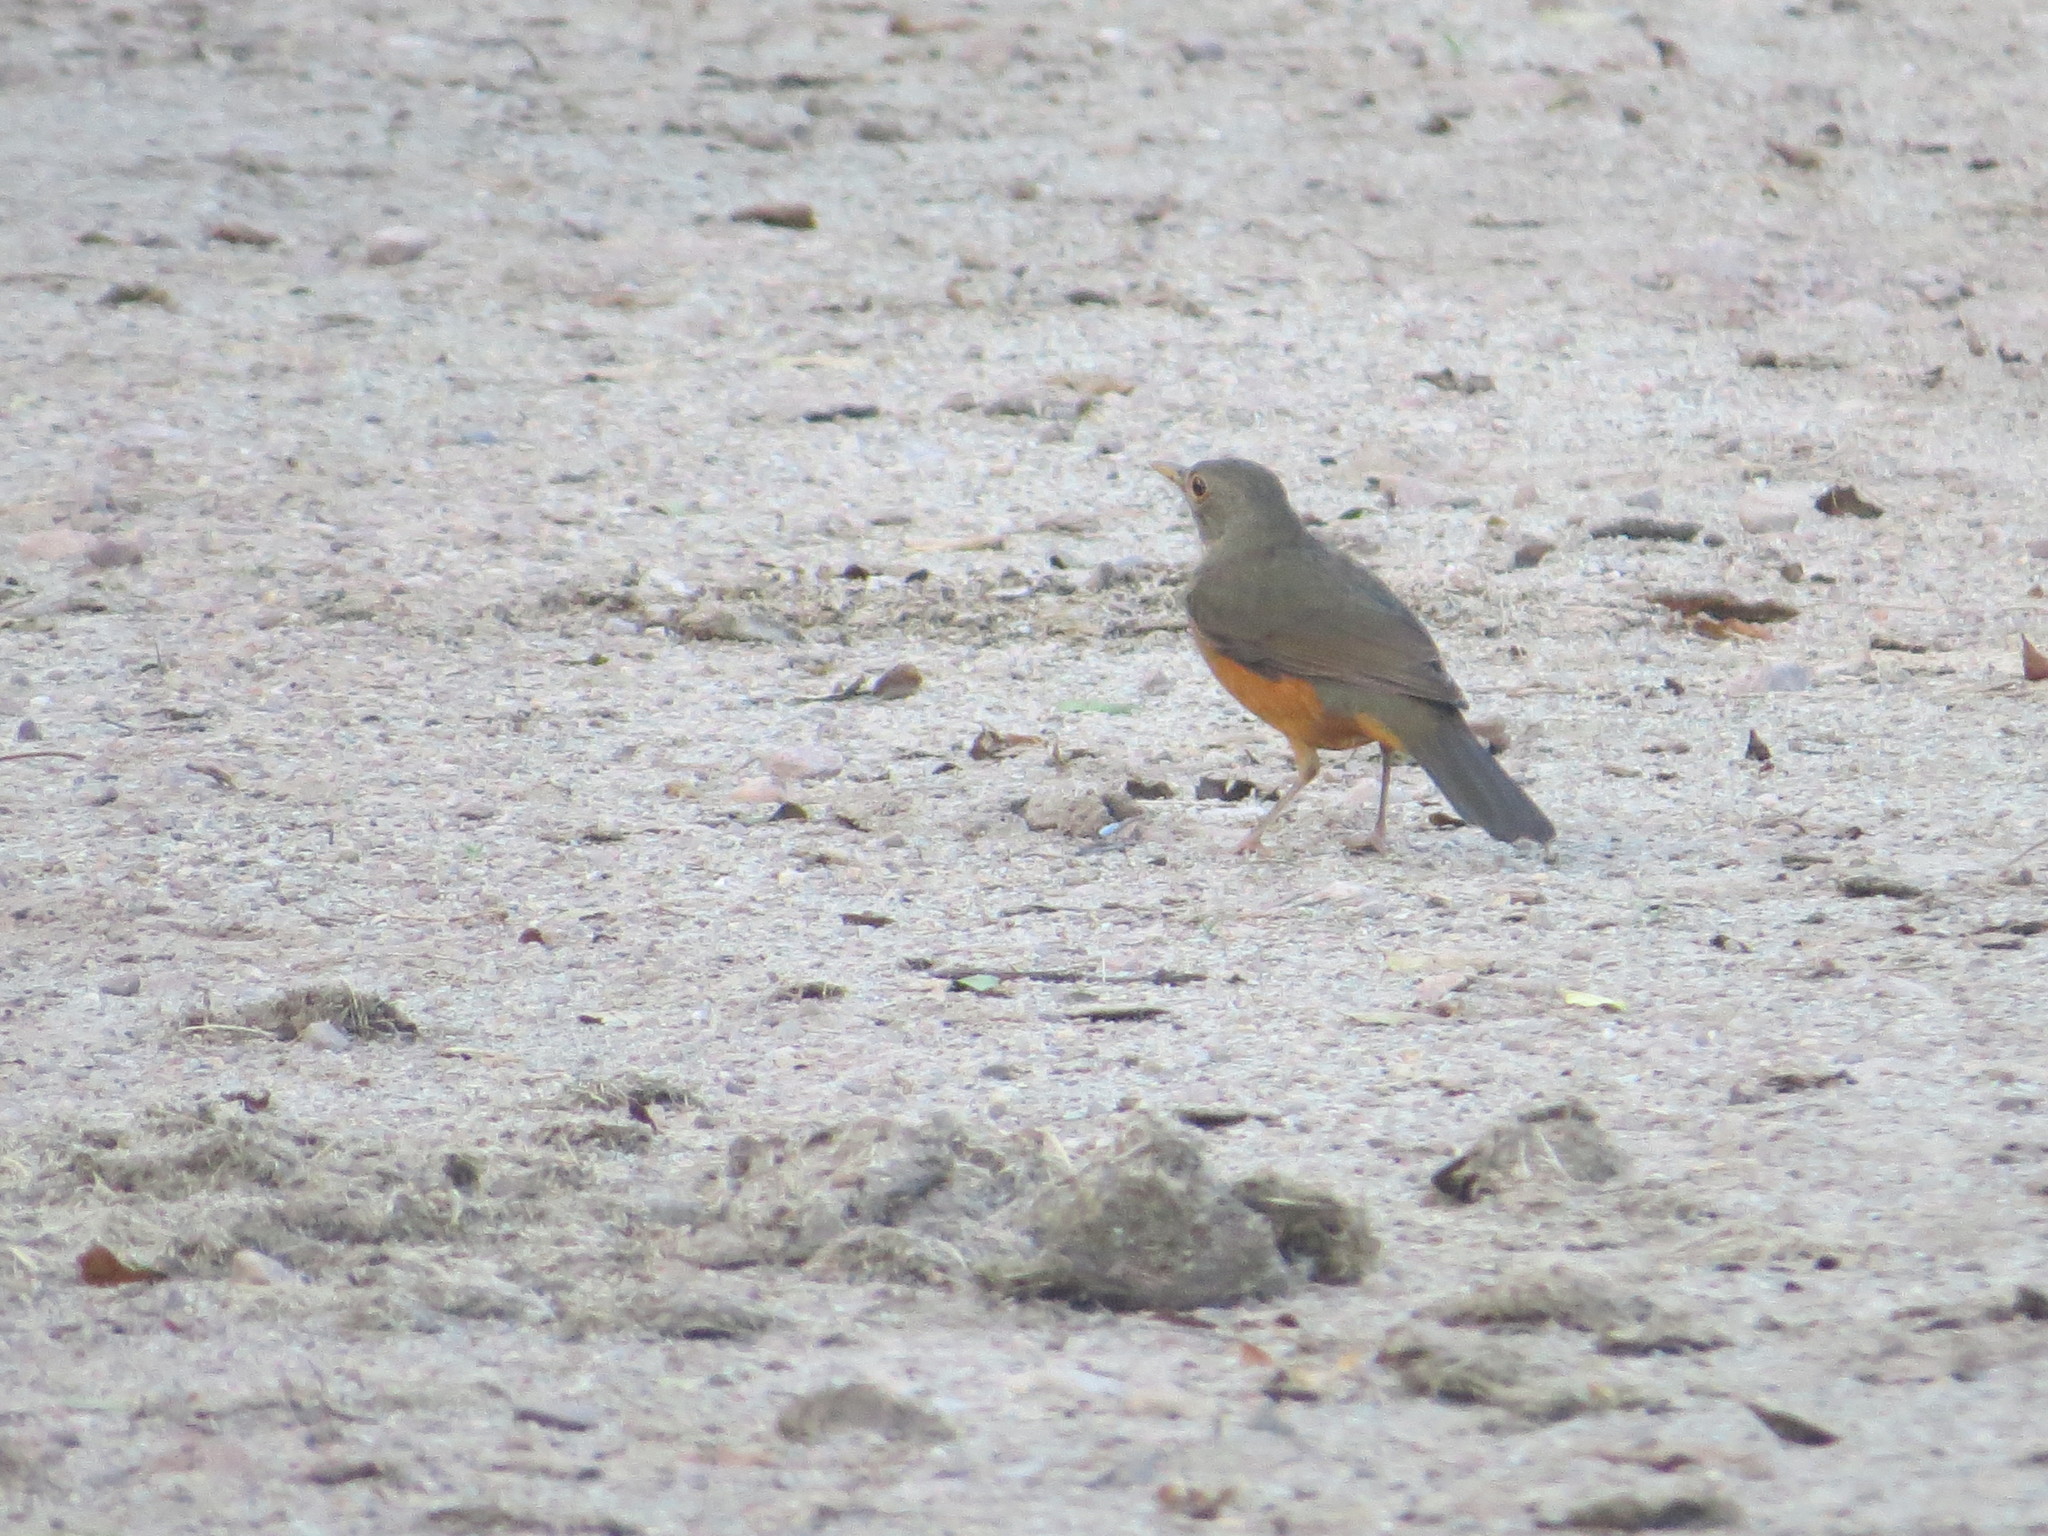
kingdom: Animalia
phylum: Chordata
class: Aves
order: Passeriformes
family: Turdidae
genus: Turdus
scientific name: Turdus rufiventris
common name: Rufous-bellied thrush
